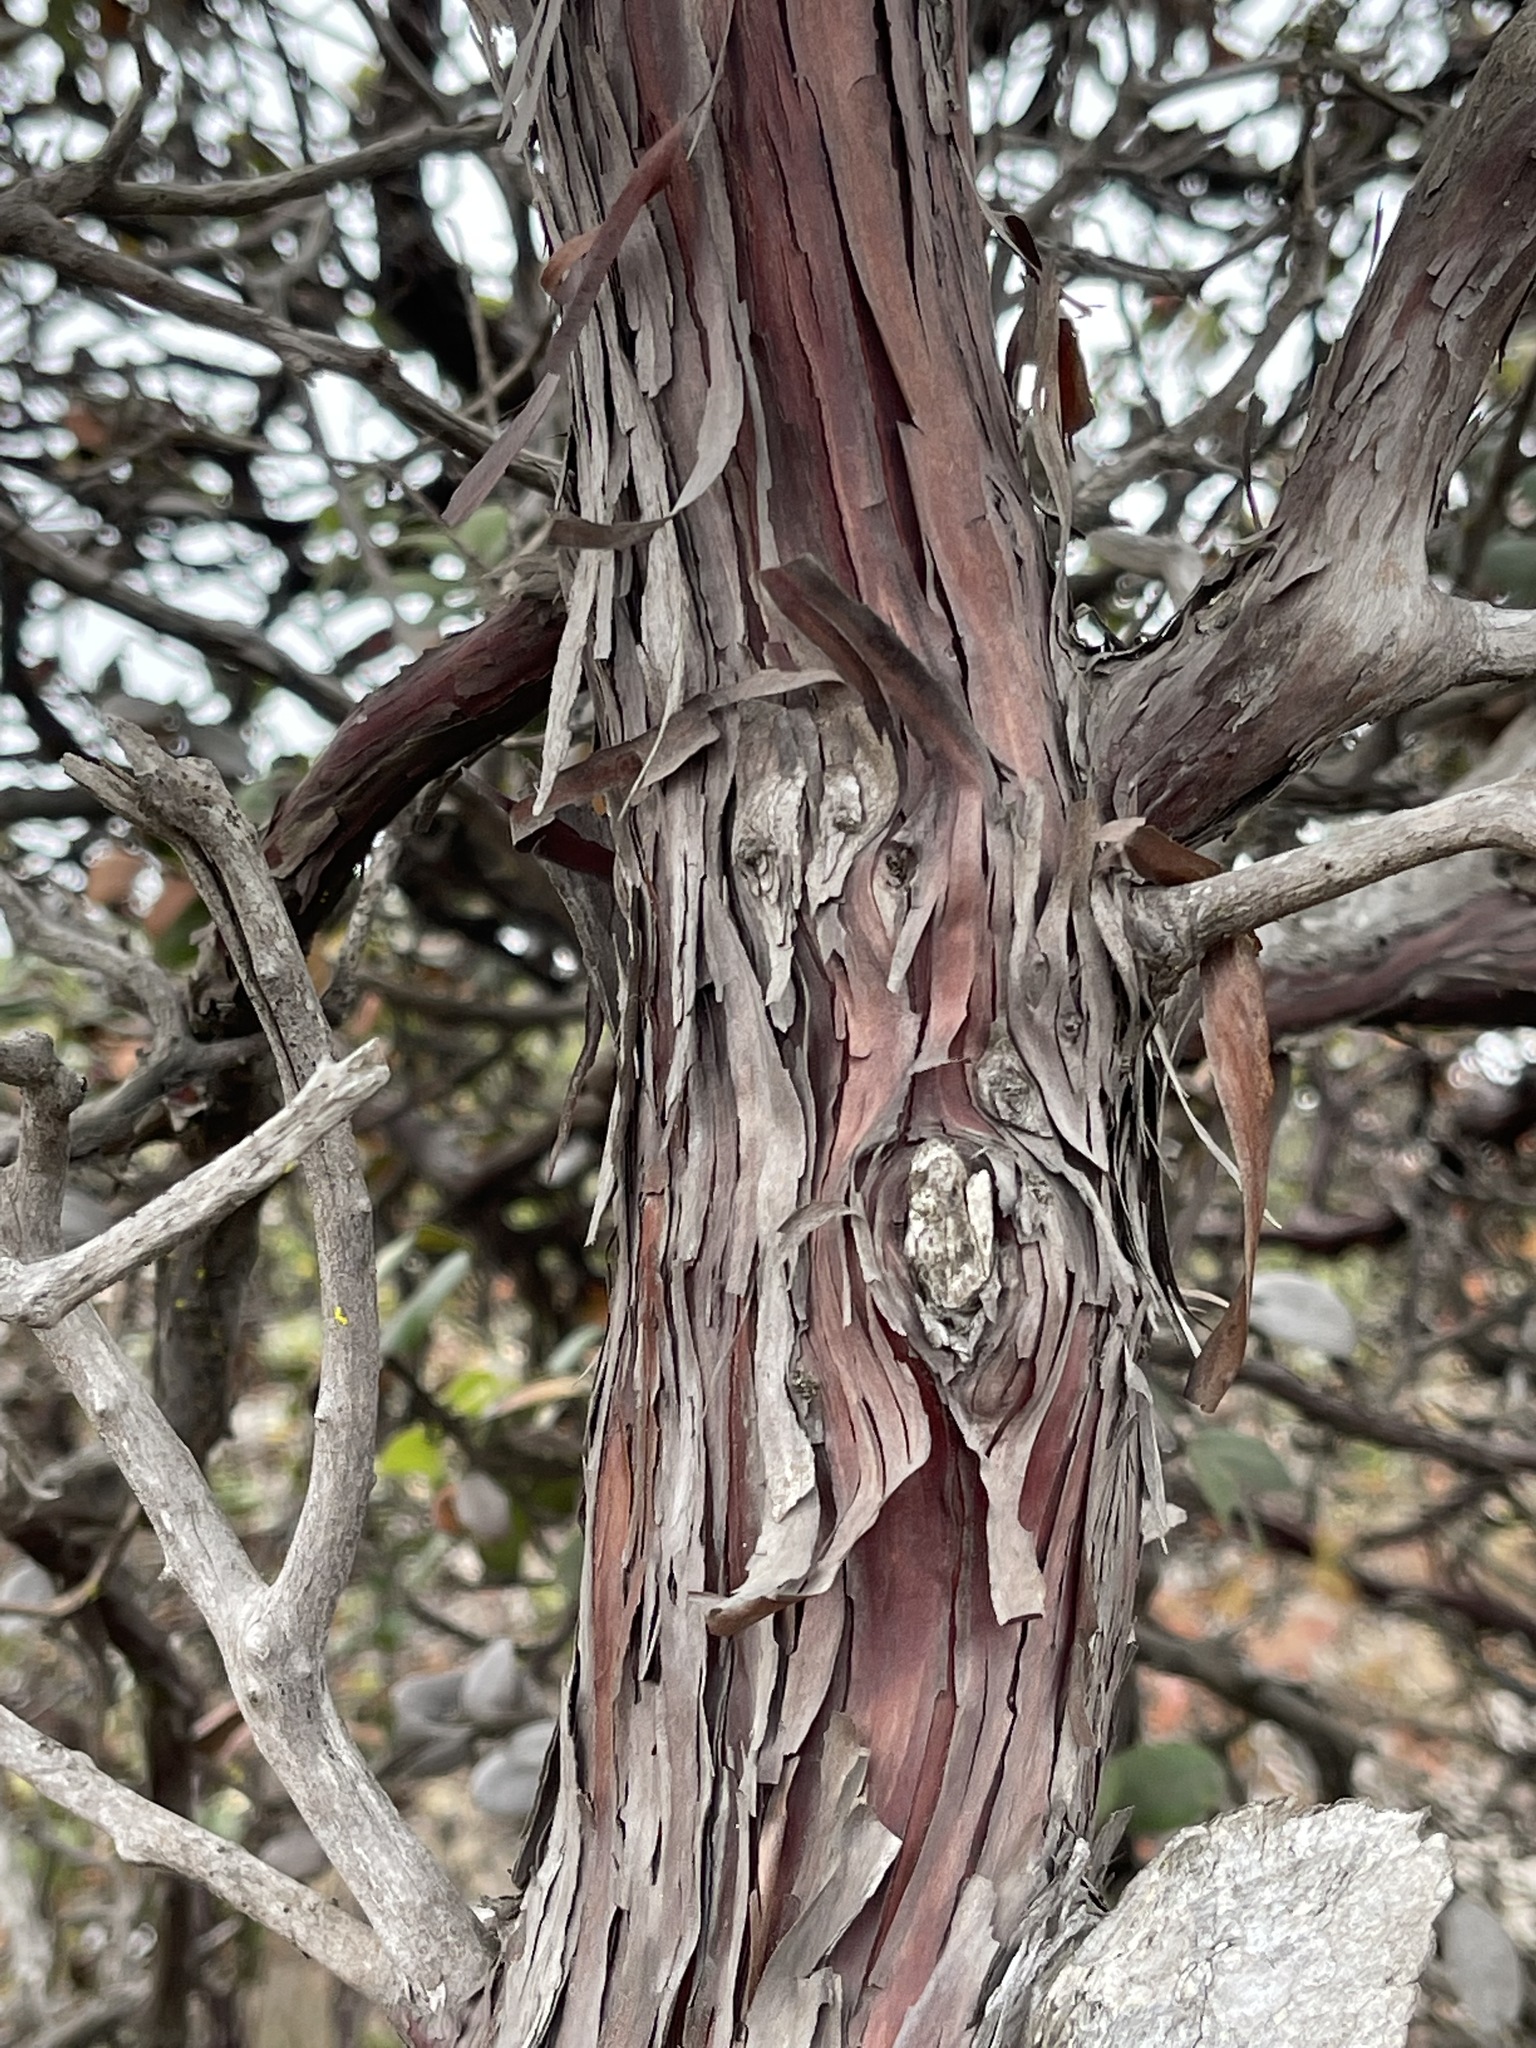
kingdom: Plantae
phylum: Tracheophyta
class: Magnoliopsida
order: Ericales
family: Ericaceae
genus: Arctostaphylos
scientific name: Arctostaphylos tomentosa
